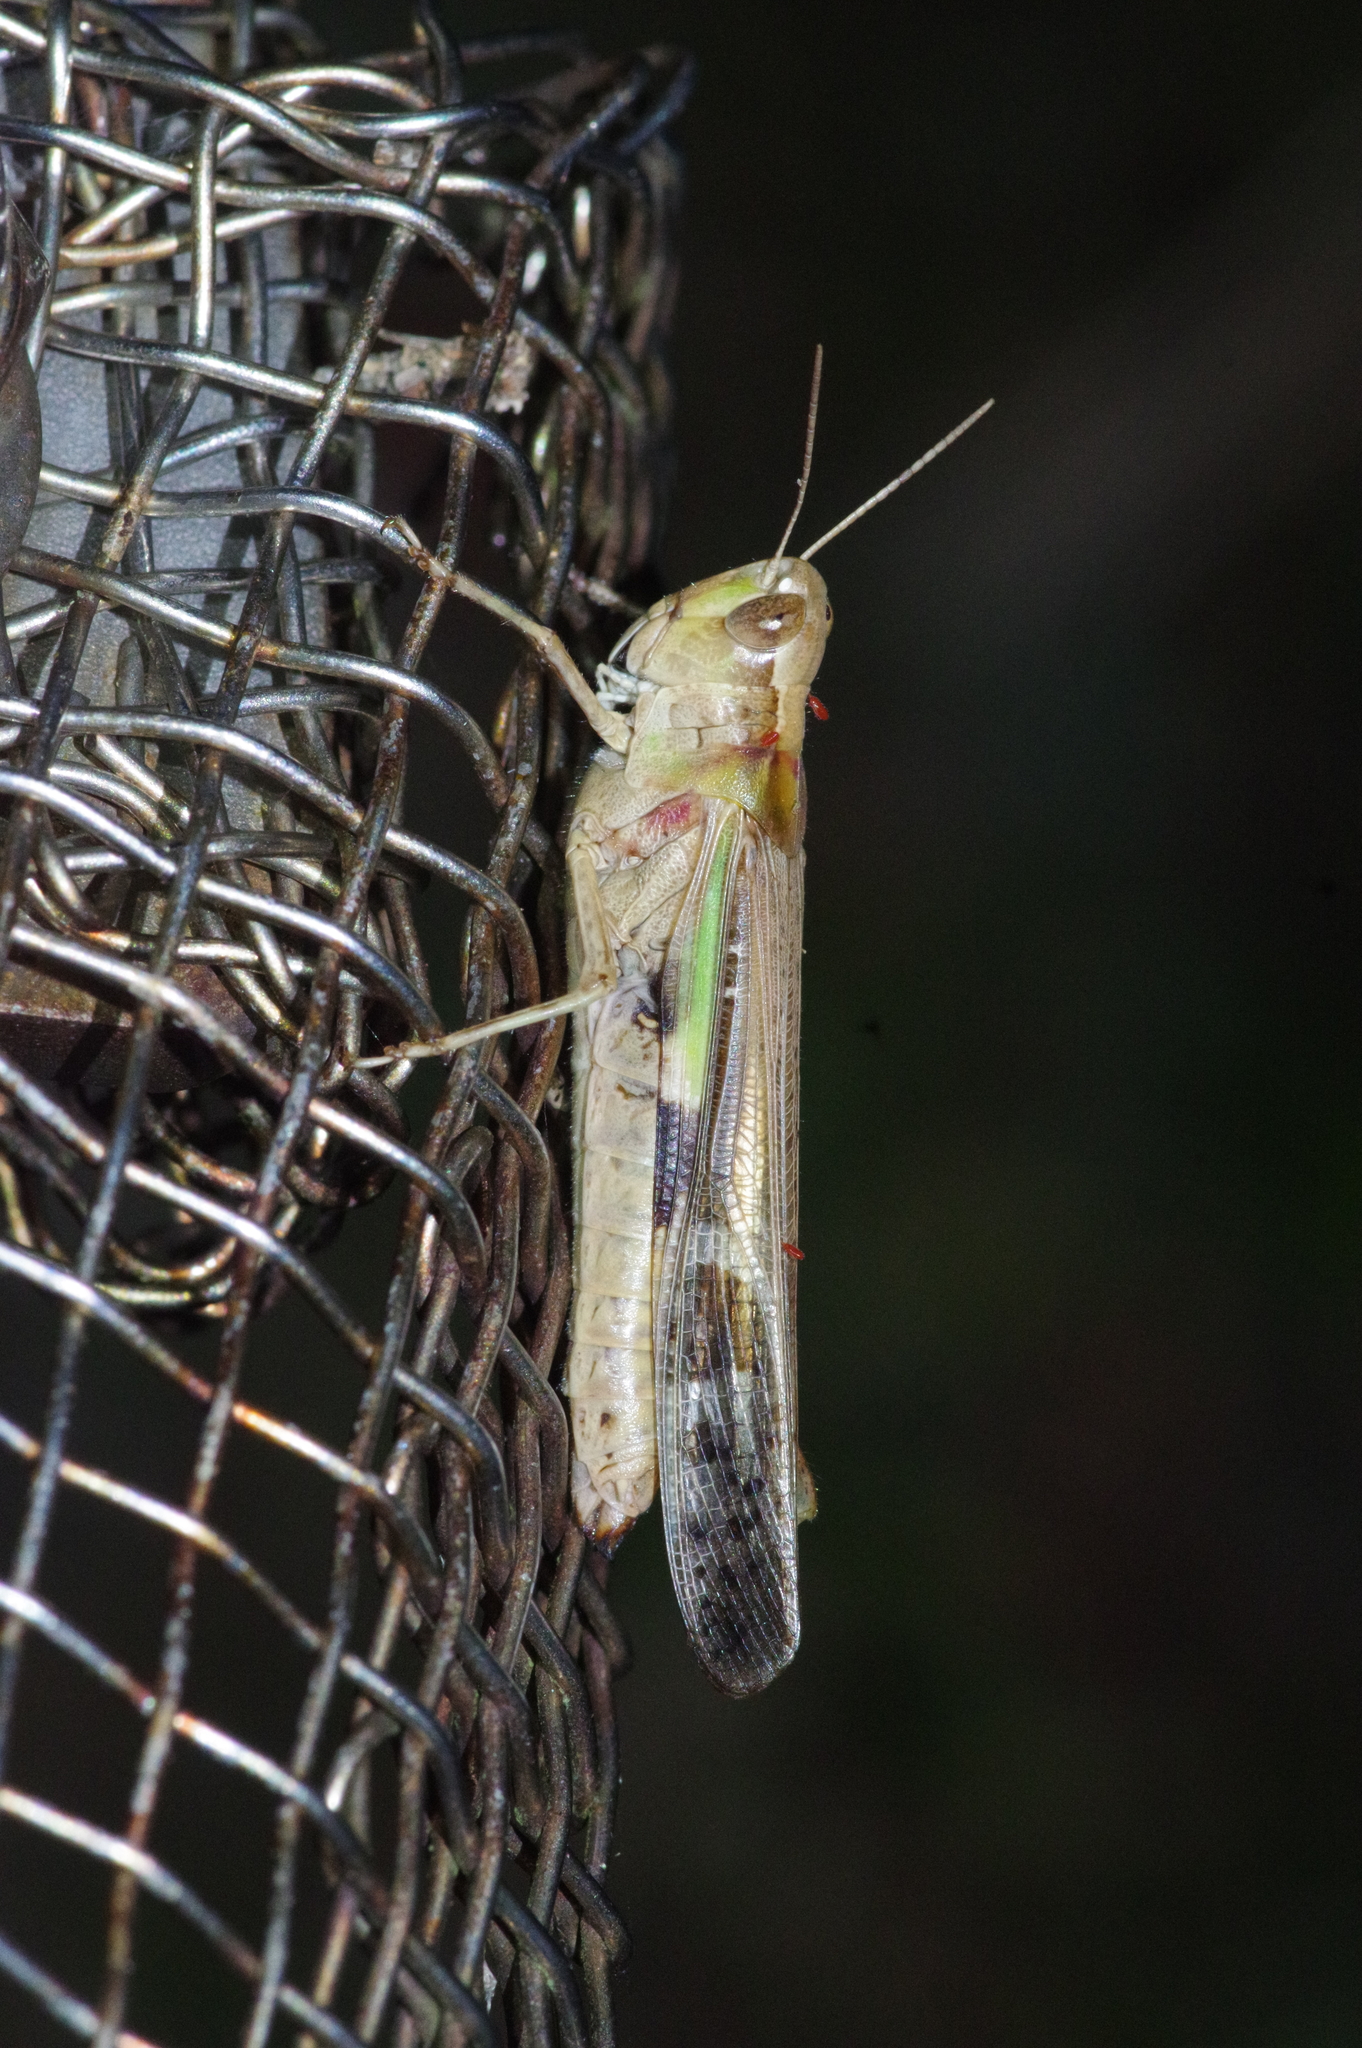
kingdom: Animalia
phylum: Arthropoda
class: Insecta
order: Orthoptera
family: Acrididae
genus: Aiolopus
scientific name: Aiolopus thalassinus
